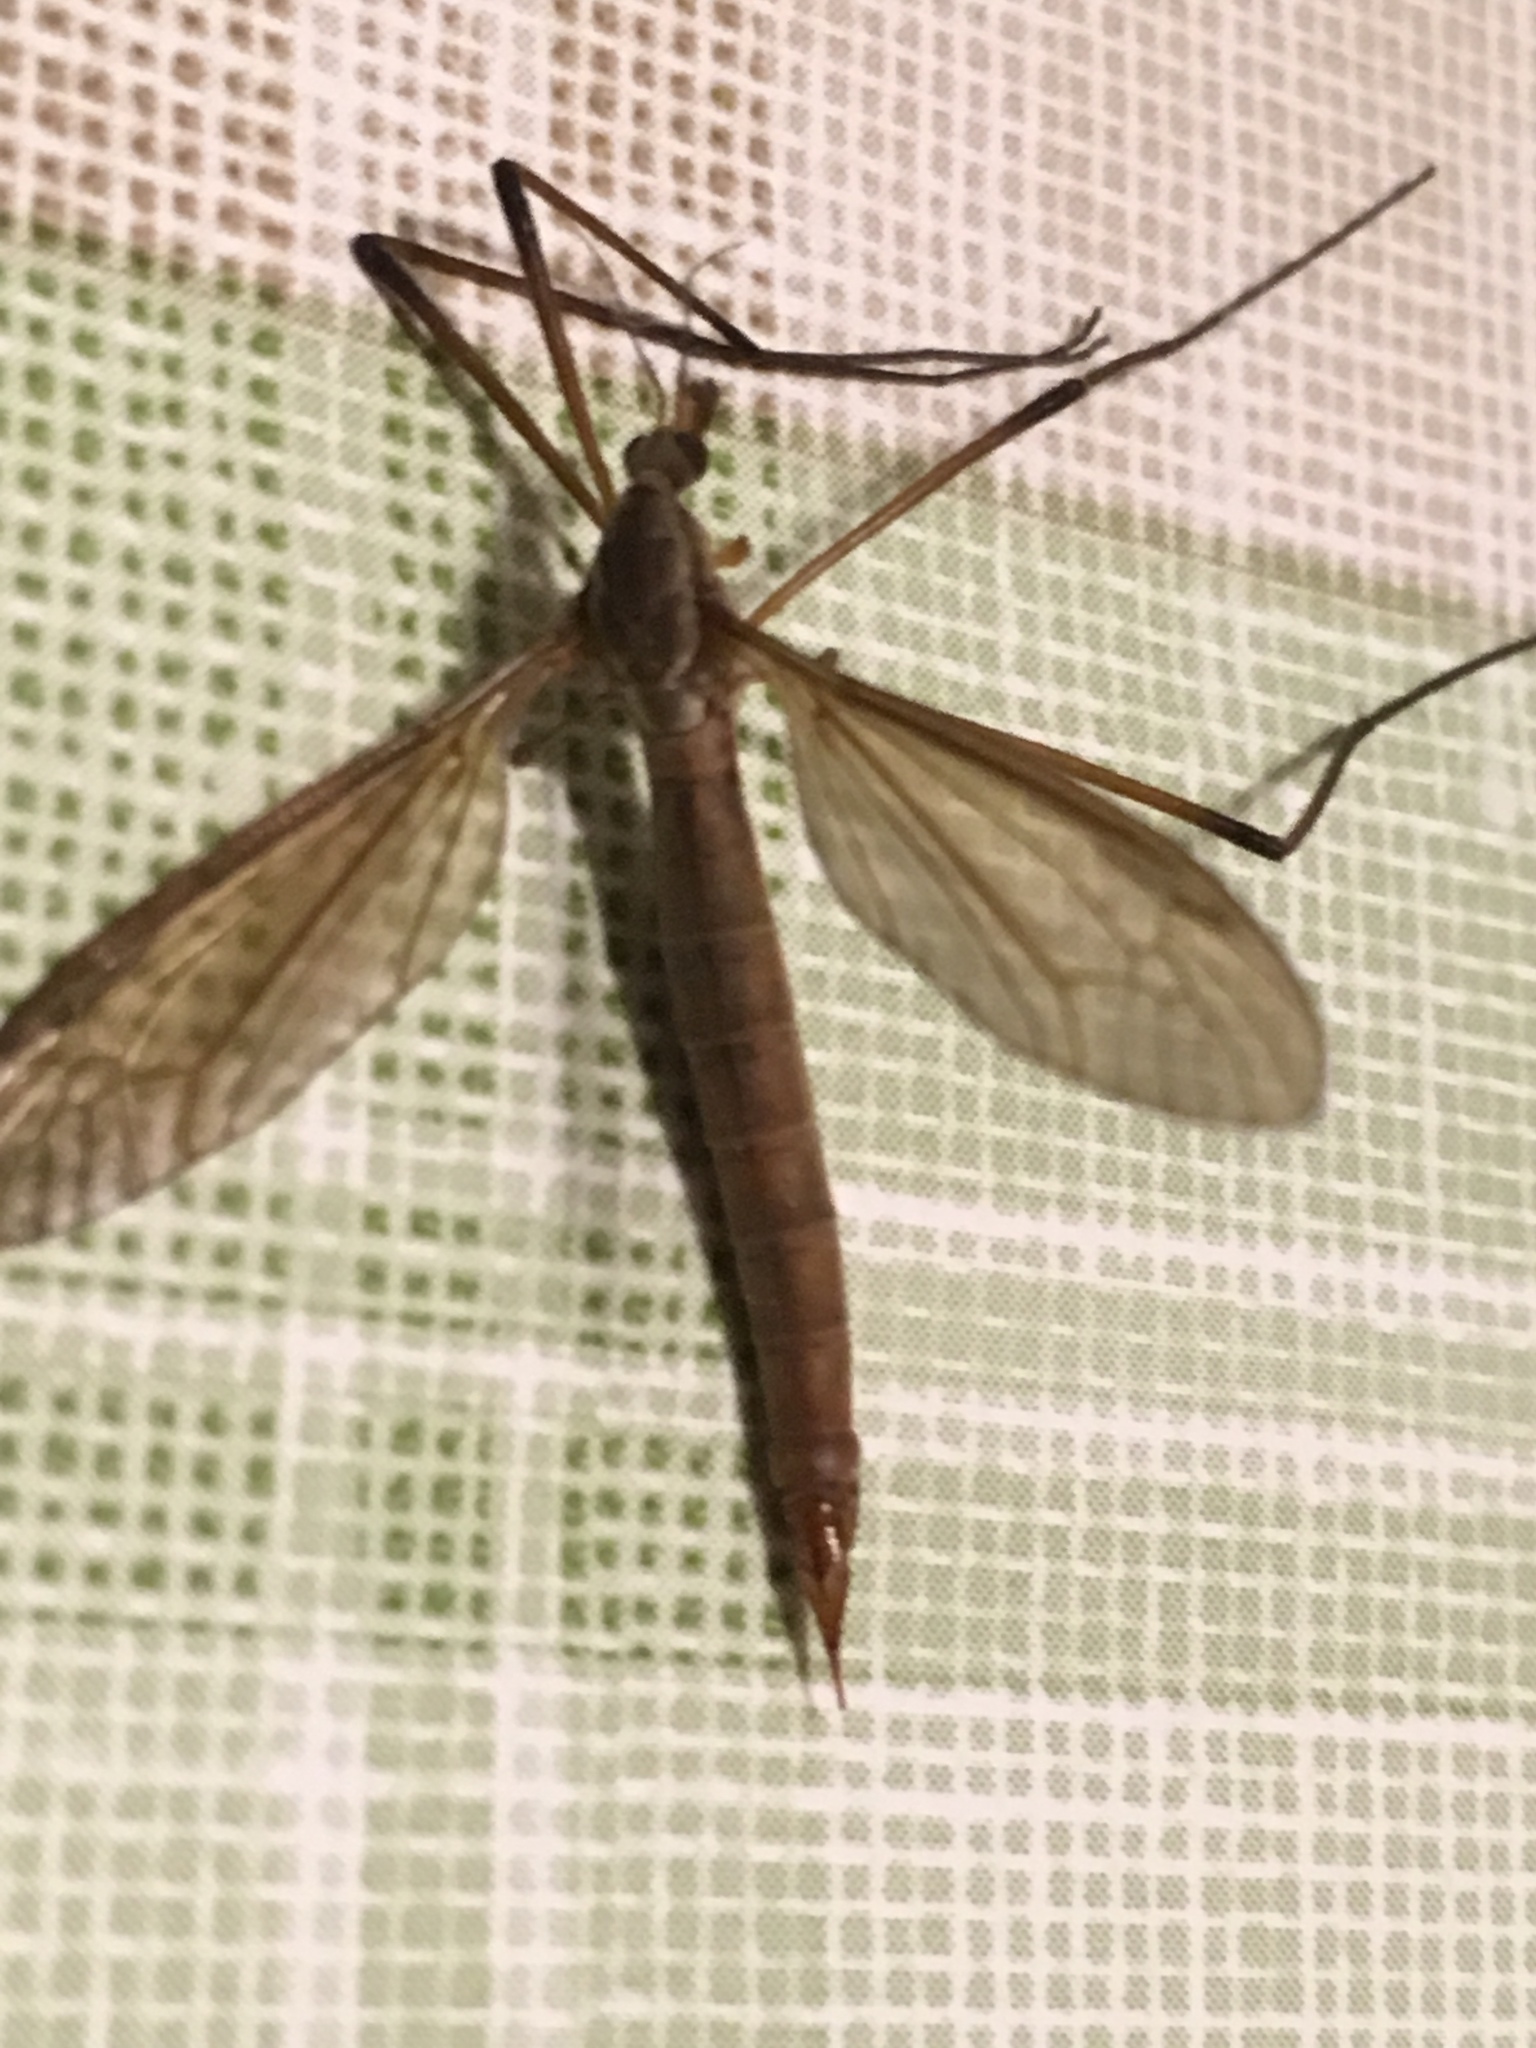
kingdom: Animalia
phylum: Arthropoda
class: Insecta
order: Diptera
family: Tipulidae
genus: Tipula
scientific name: Tipula paludosa
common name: European cranefly
